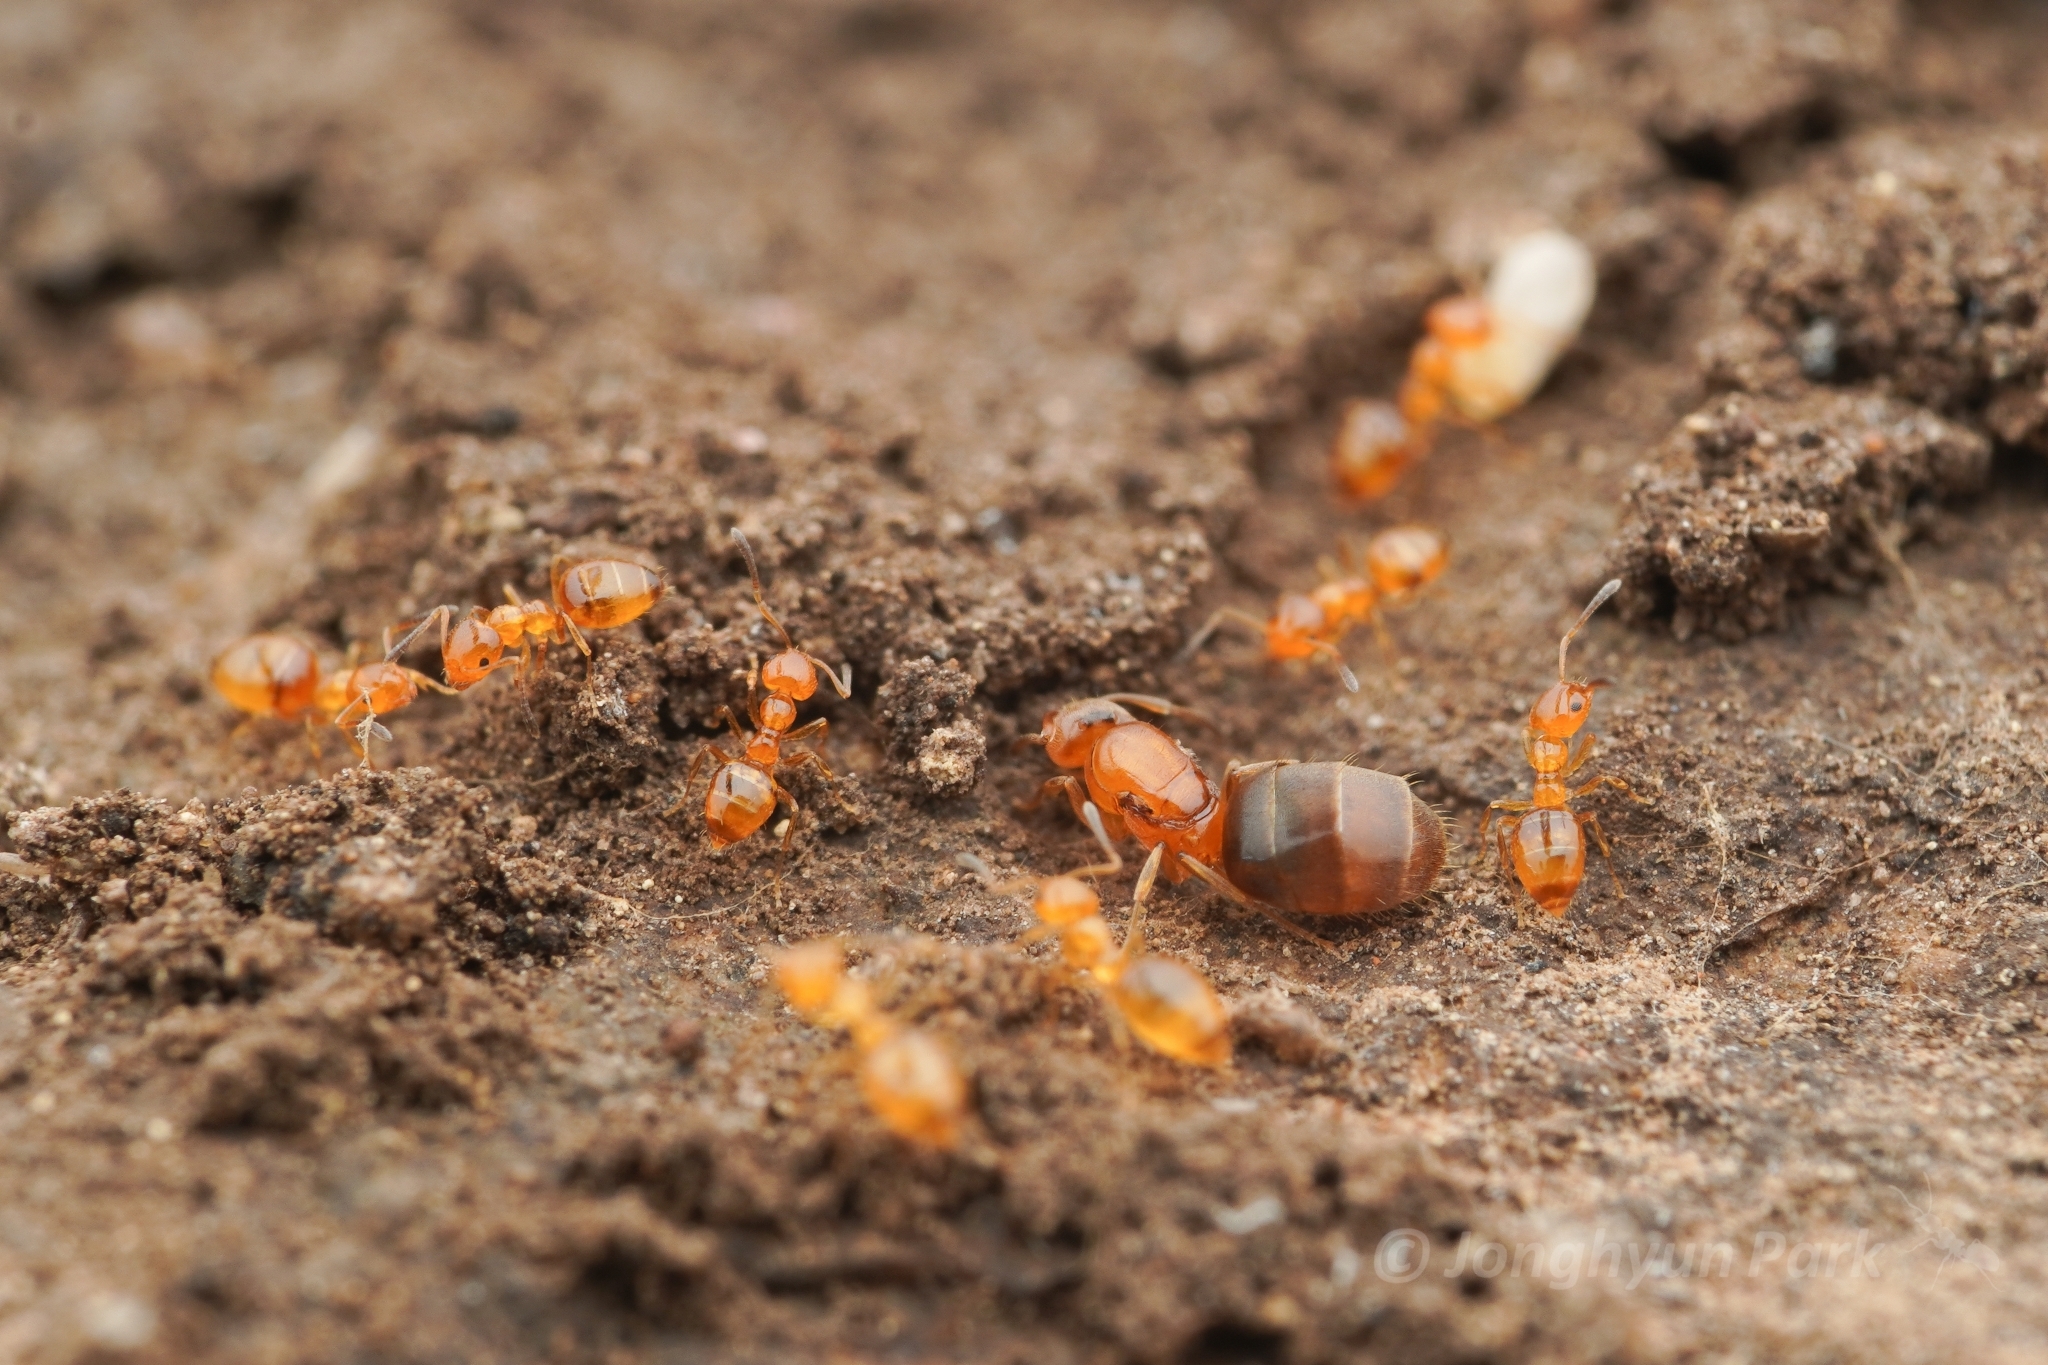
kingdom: Animalia
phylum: Arthropoda
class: Insecta
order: Hymenoptera
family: Formicidae
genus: Plagiolepis
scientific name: Plagiolepis flavescens
